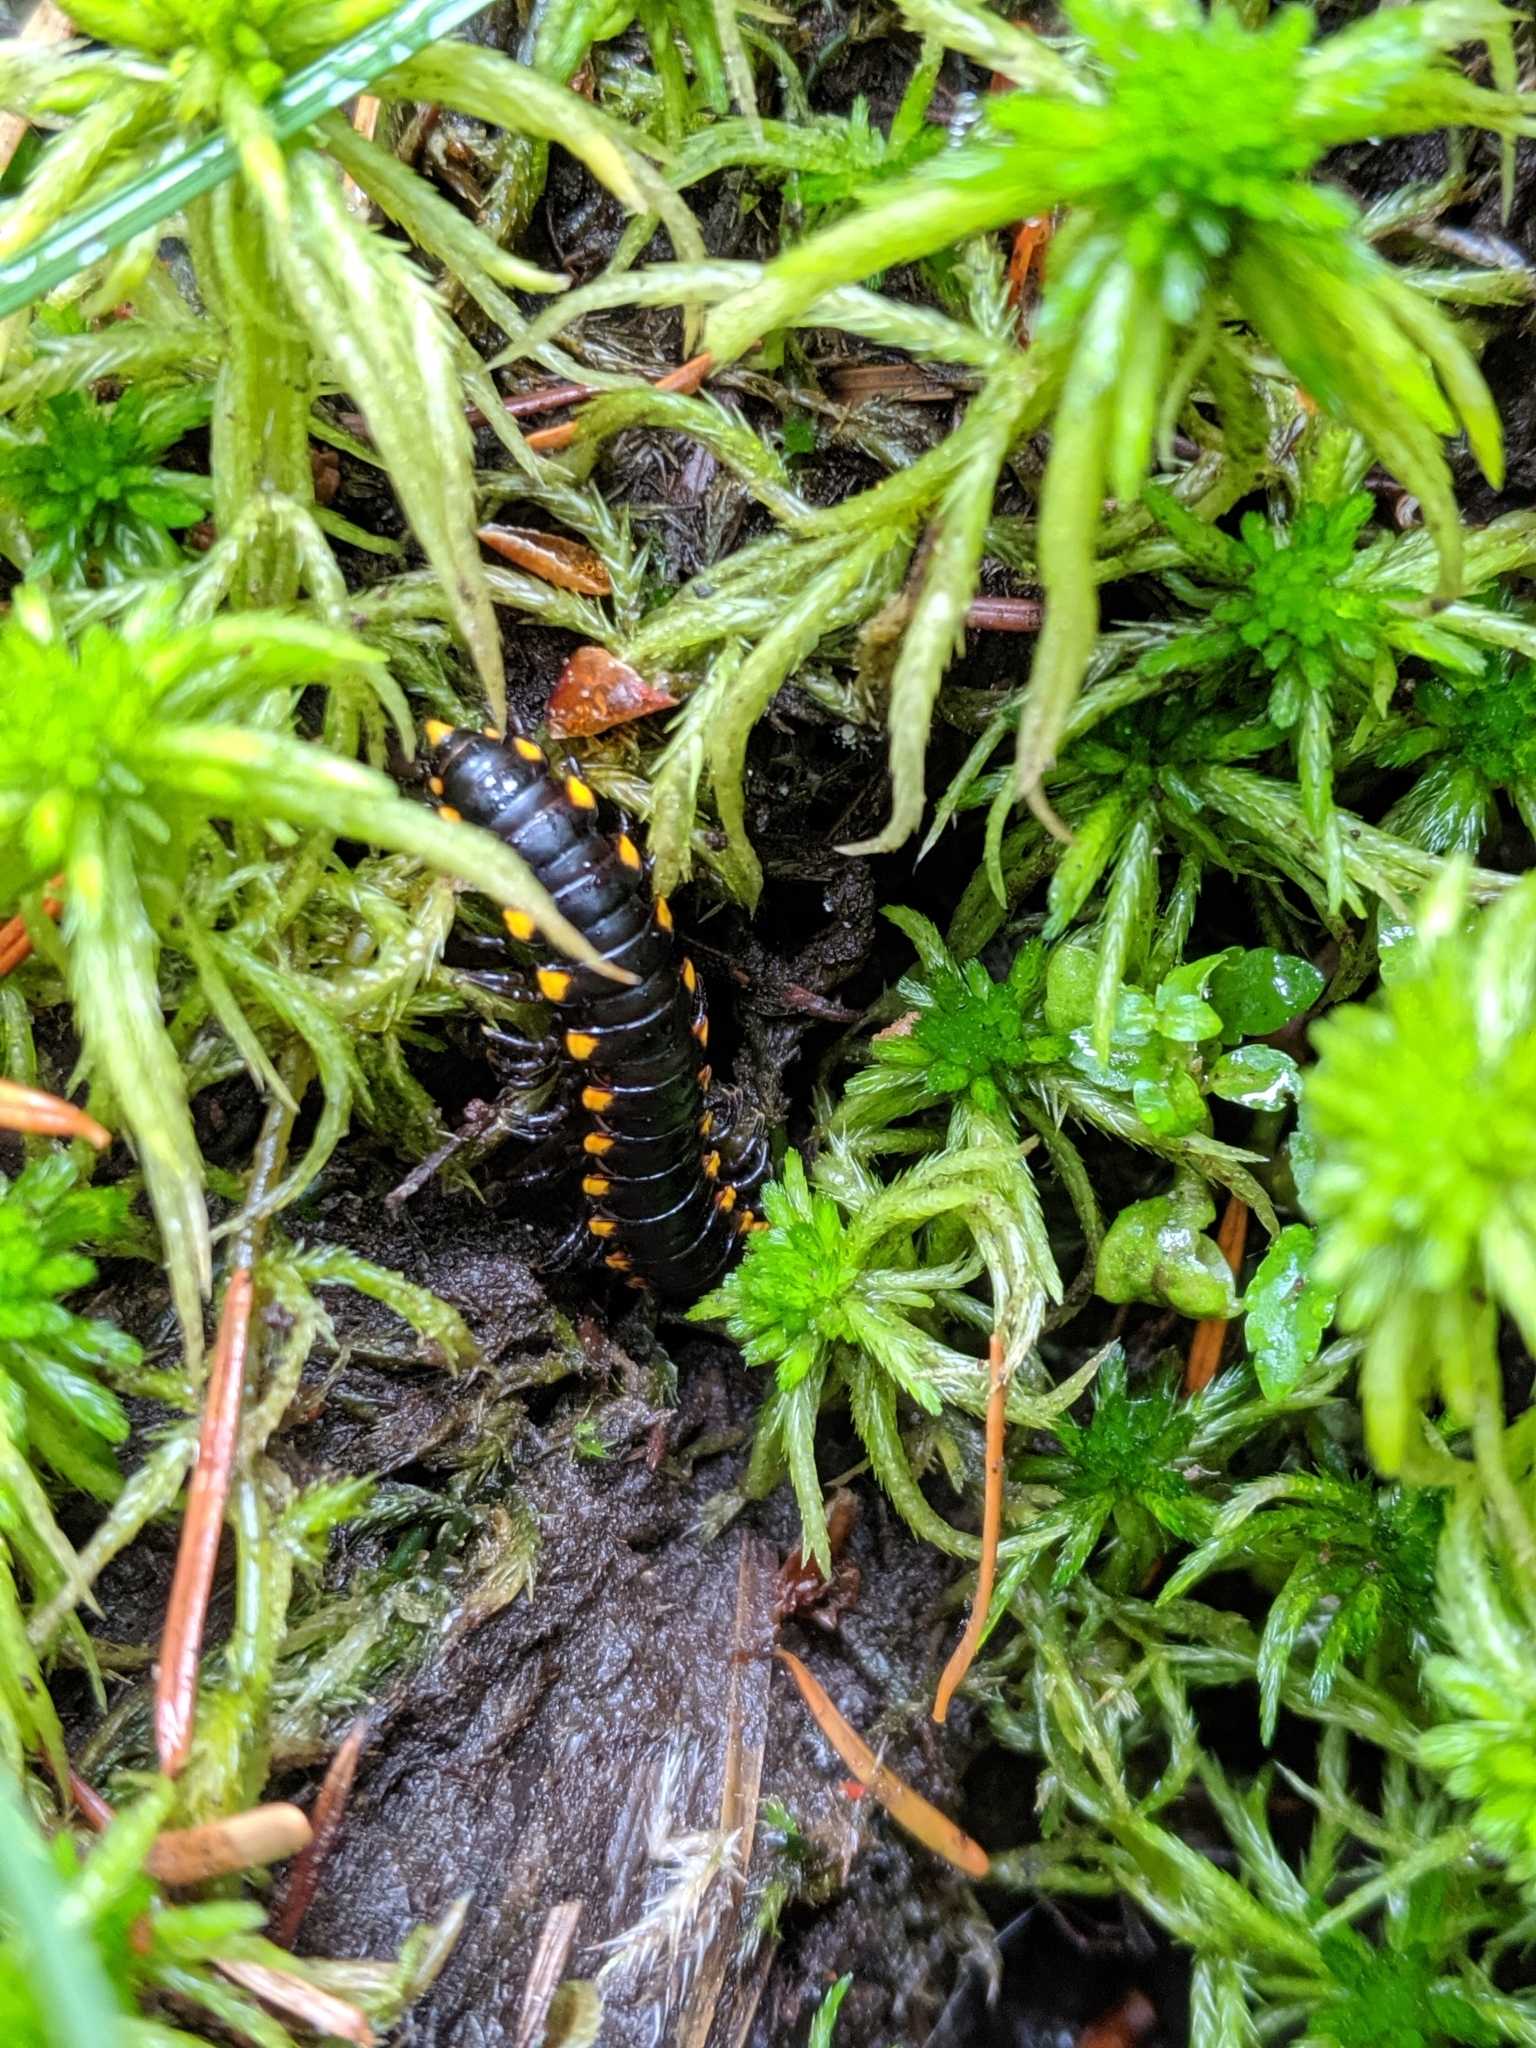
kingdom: Animalia
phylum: Arthropoda
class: Diplopoda
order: Polydesmida
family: Xystodesmidae
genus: Harpaphe
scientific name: Harpaphe haydeniana
